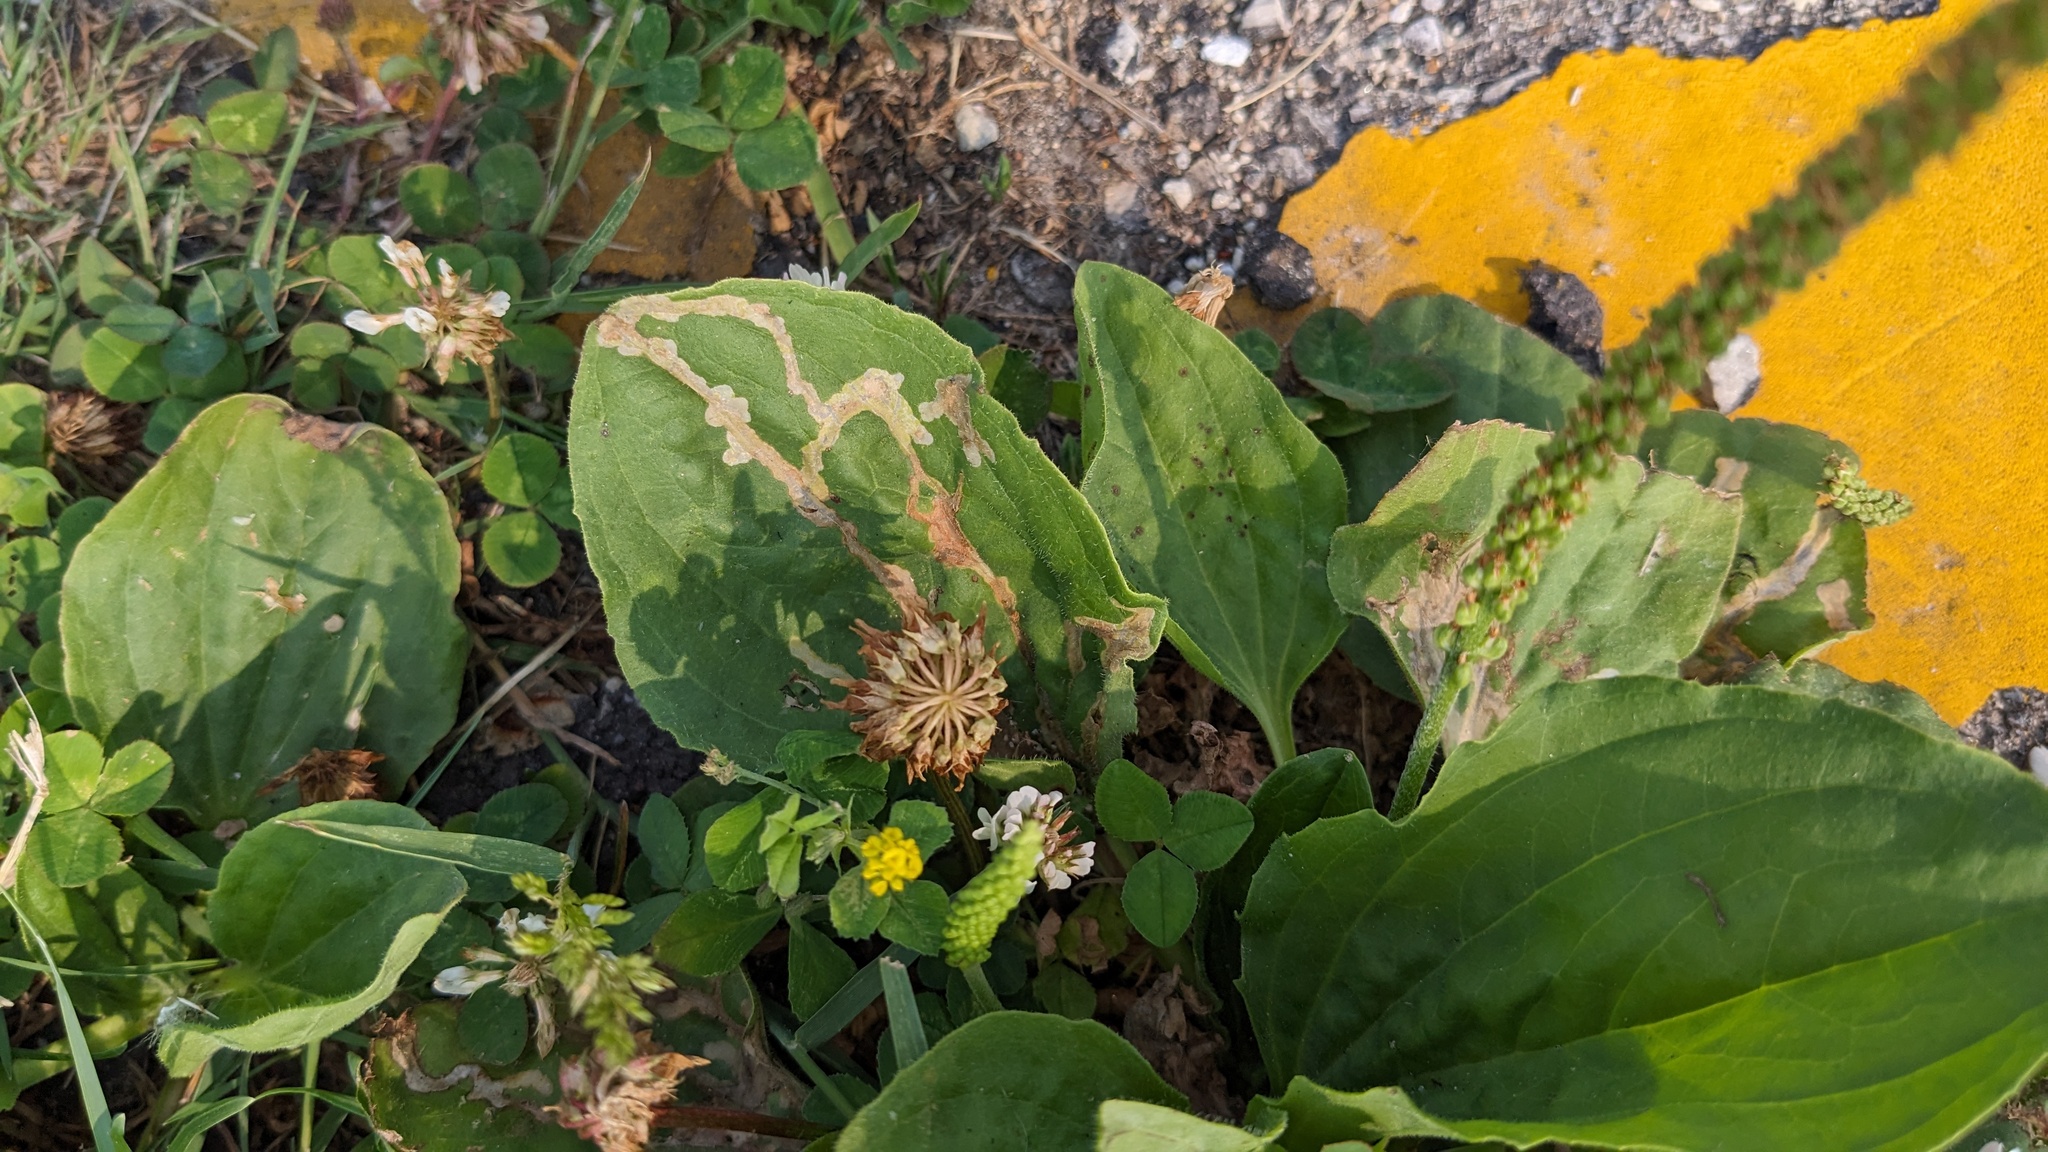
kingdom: Animalia
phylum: Arthropoda
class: Insecta
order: Coleoptera
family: Chrysomelidae
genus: Dibolia
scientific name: Dibolia borealis
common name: Northern plantain flea beetle
